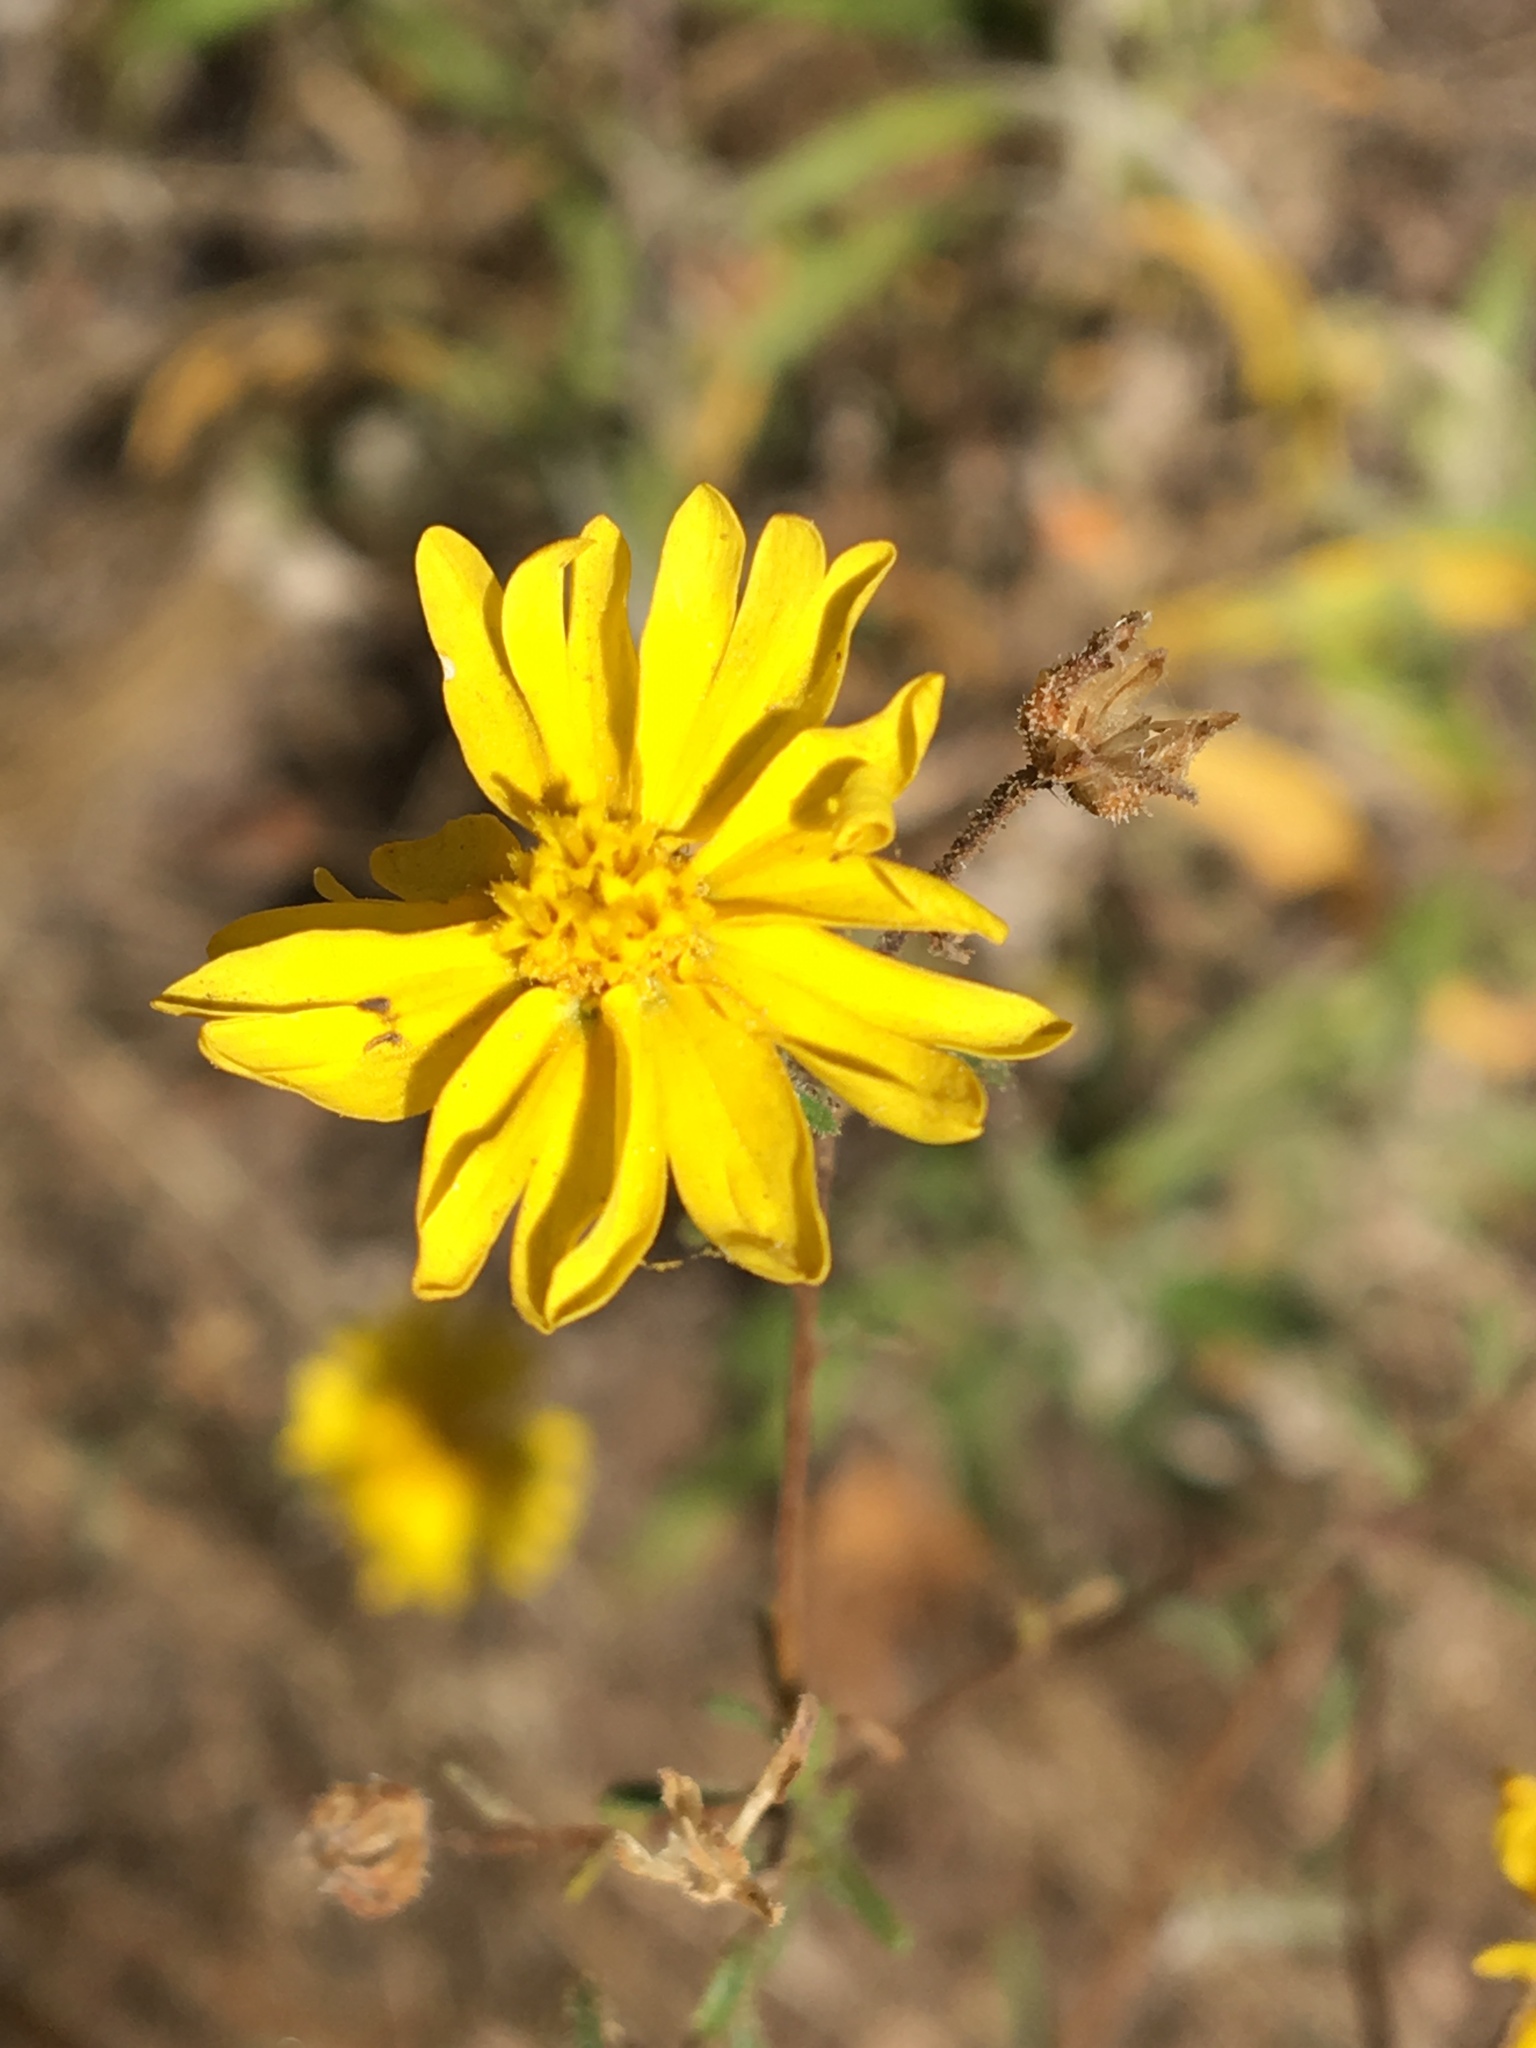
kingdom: Plantae
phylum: Tracheophyta
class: Magnoliopsida
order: Asterales
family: Asteraceae
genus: Madia
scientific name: Madia elegans
